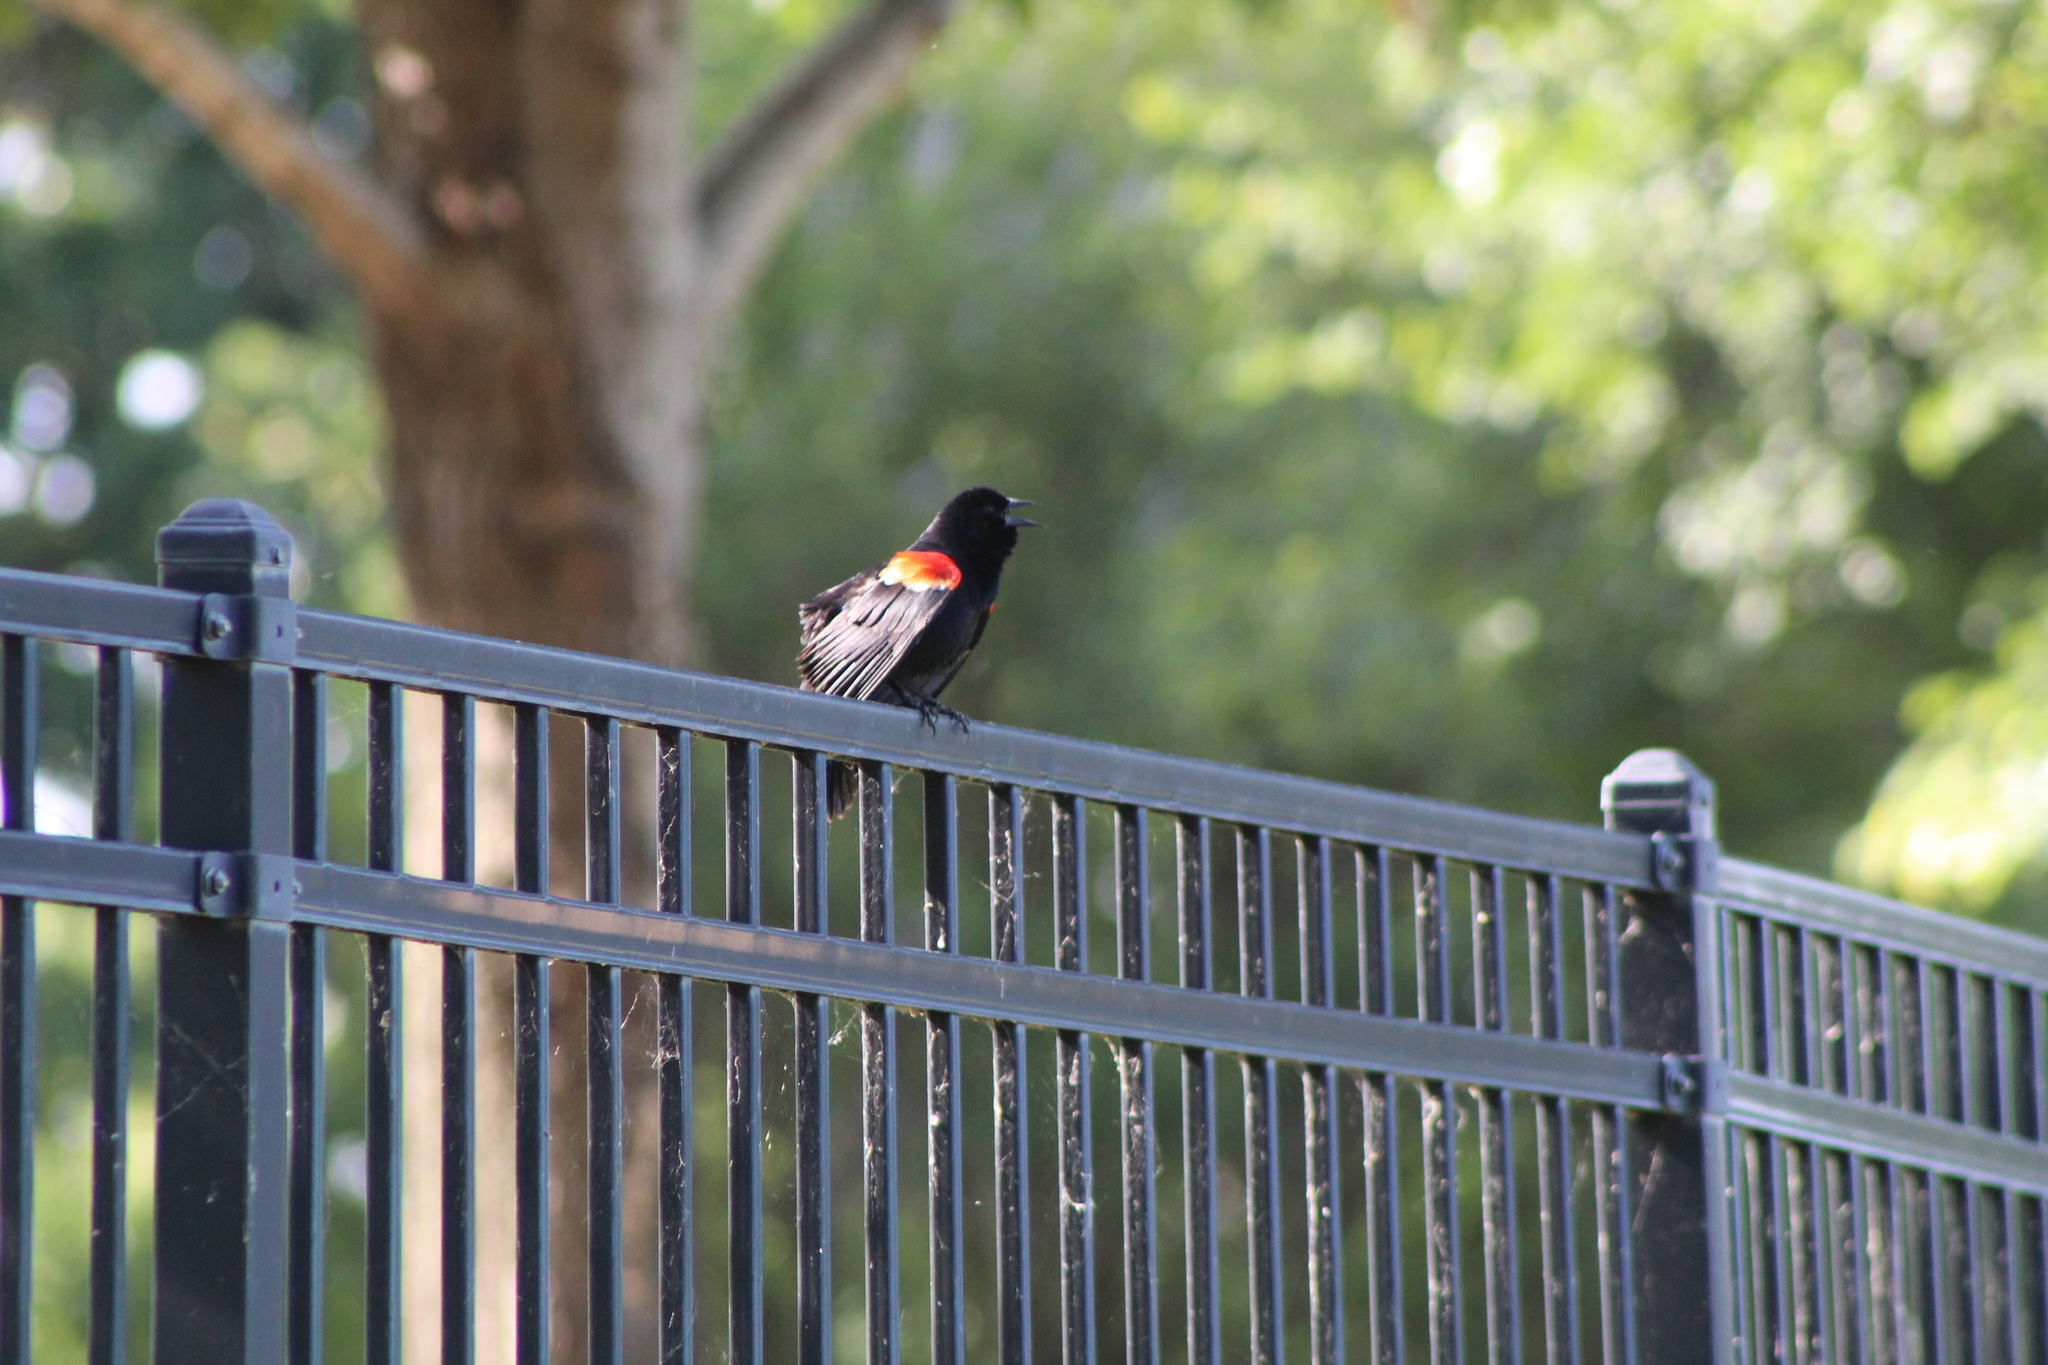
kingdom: Animalia
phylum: Chordata
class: Aves
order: Passeriformes
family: Icteridae
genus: Agelaius
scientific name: Agelaius phoeniceus
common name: Red-winged blackbird
